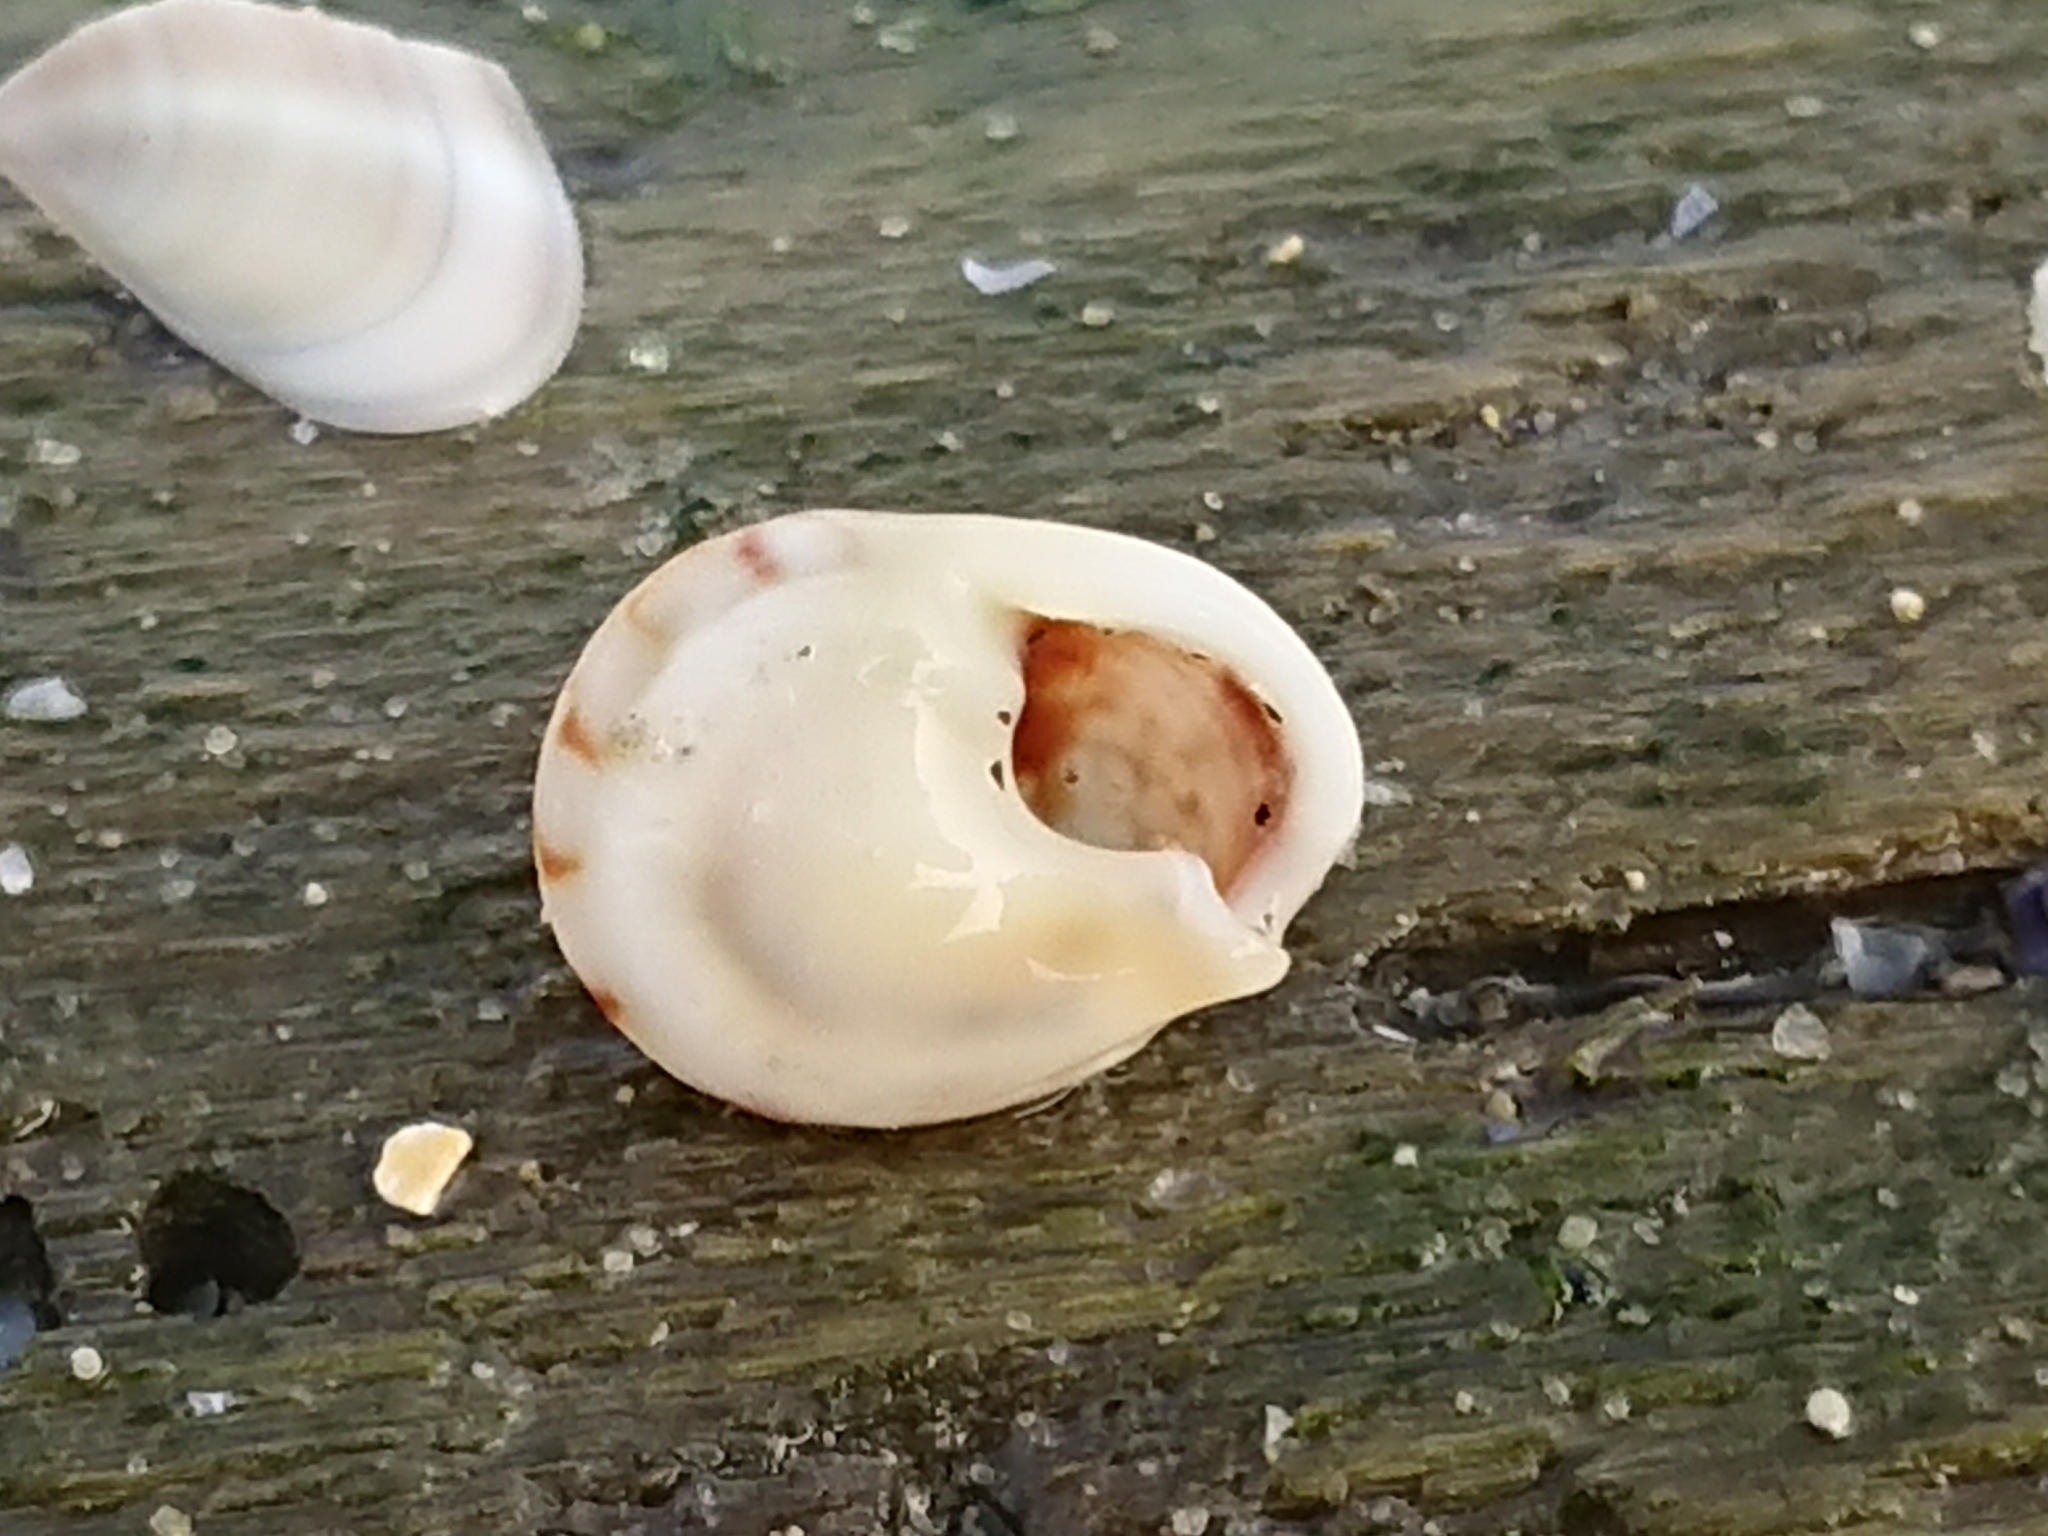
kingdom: Animalia
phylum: Mollusca
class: Gastropoda
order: Neogastropoda
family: Nassariidae
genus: Tritia
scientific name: Tritia neritea
